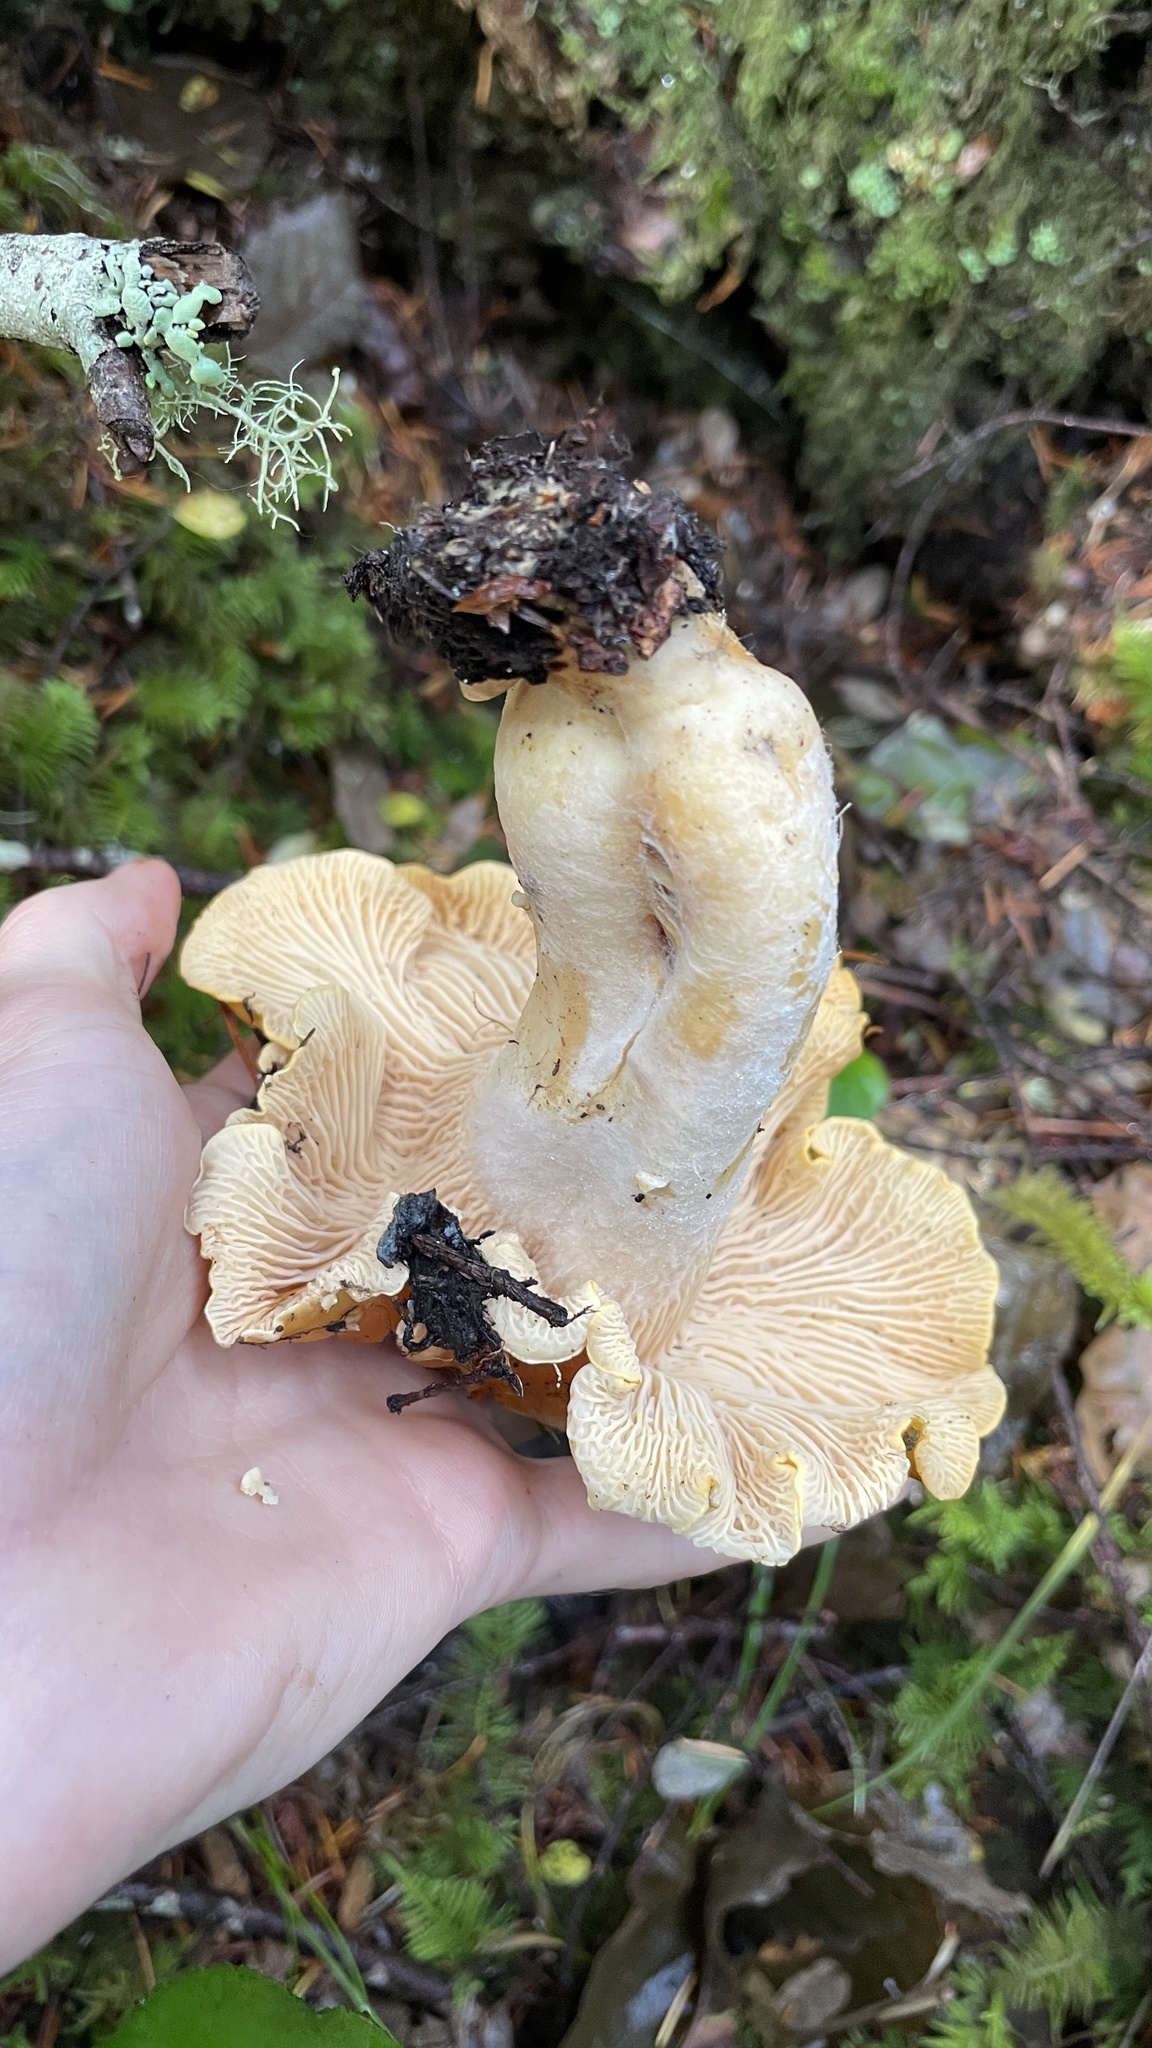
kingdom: Fungi
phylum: Basidiomycota
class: Agaricomycetes
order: Cantharellales
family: Hydnaceae
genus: Cantharellus
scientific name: Cantharellus cascadensis
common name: Cascade chanterelle
